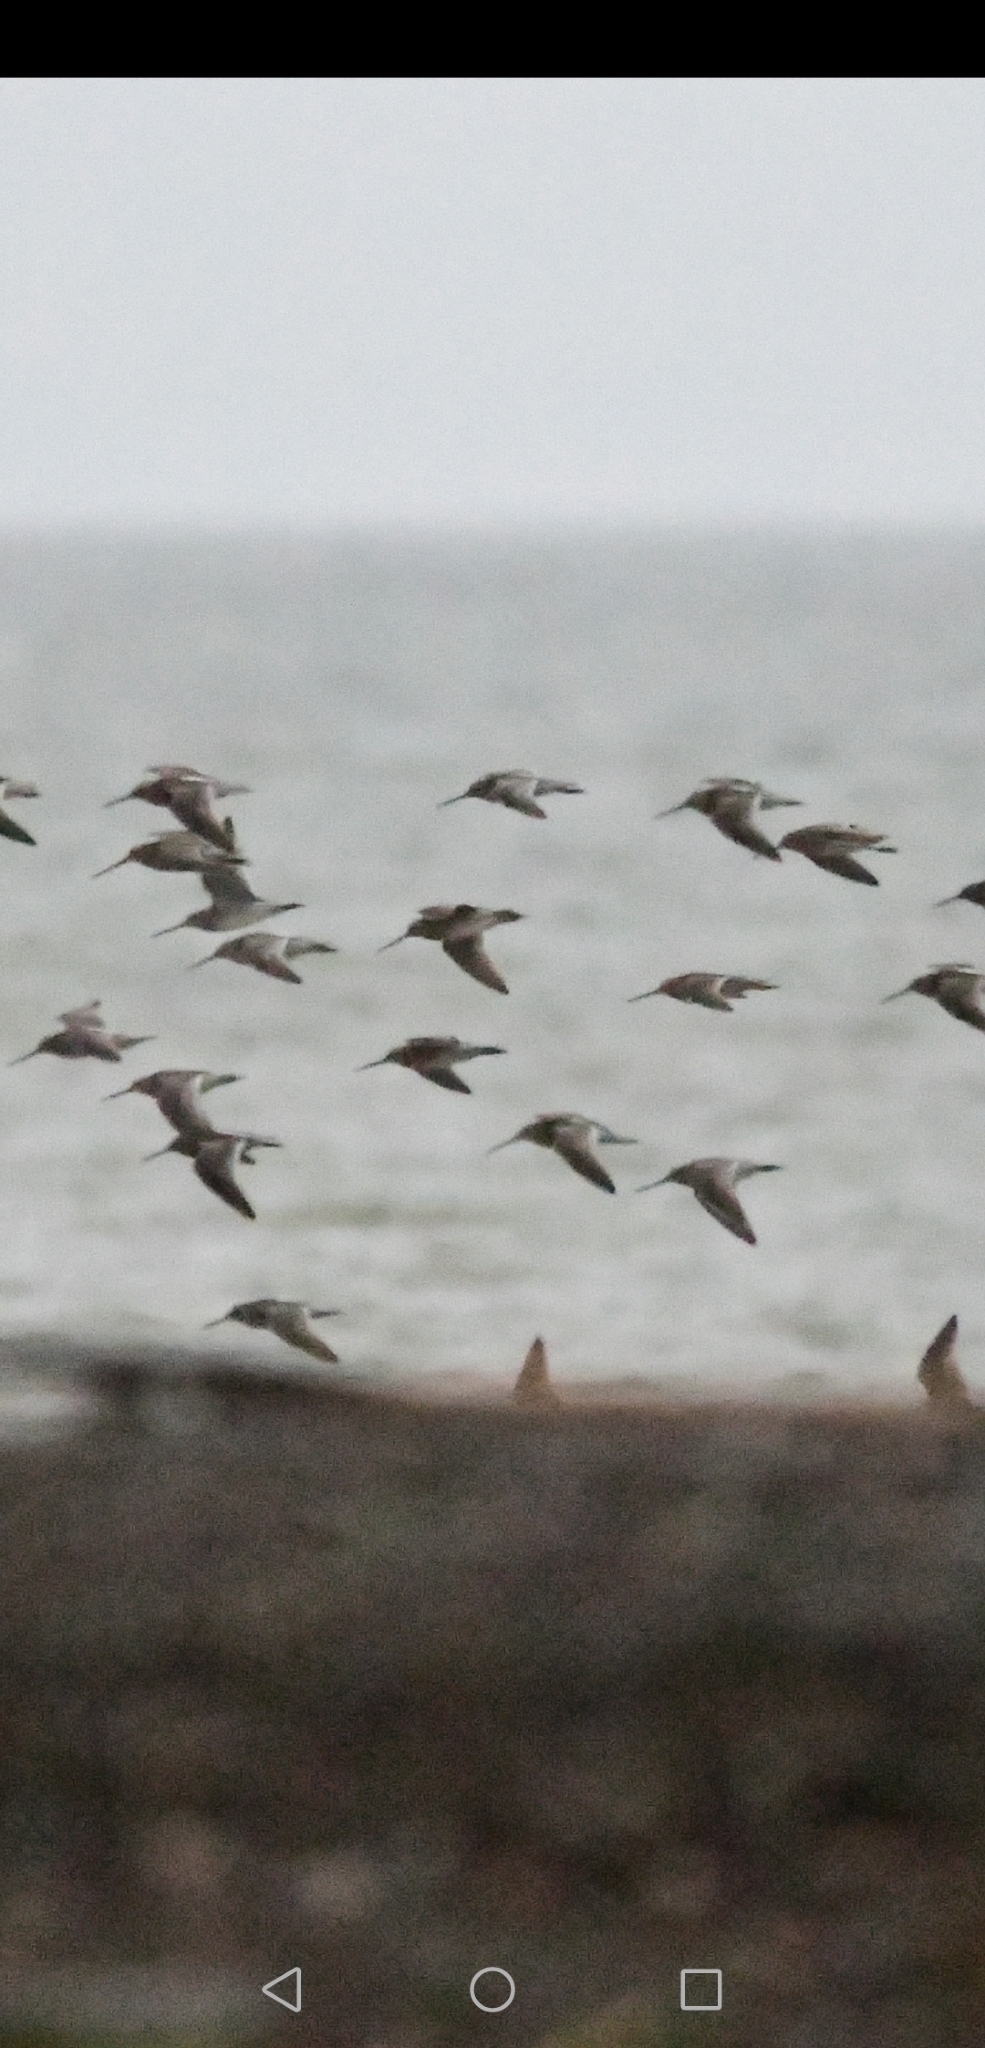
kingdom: Animalia
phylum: Chordata
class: Aves
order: Charadriiformes
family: Scolopacidae
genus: Limnodromus
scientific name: Limnodromus griseus
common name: Short-billed dowitcher
